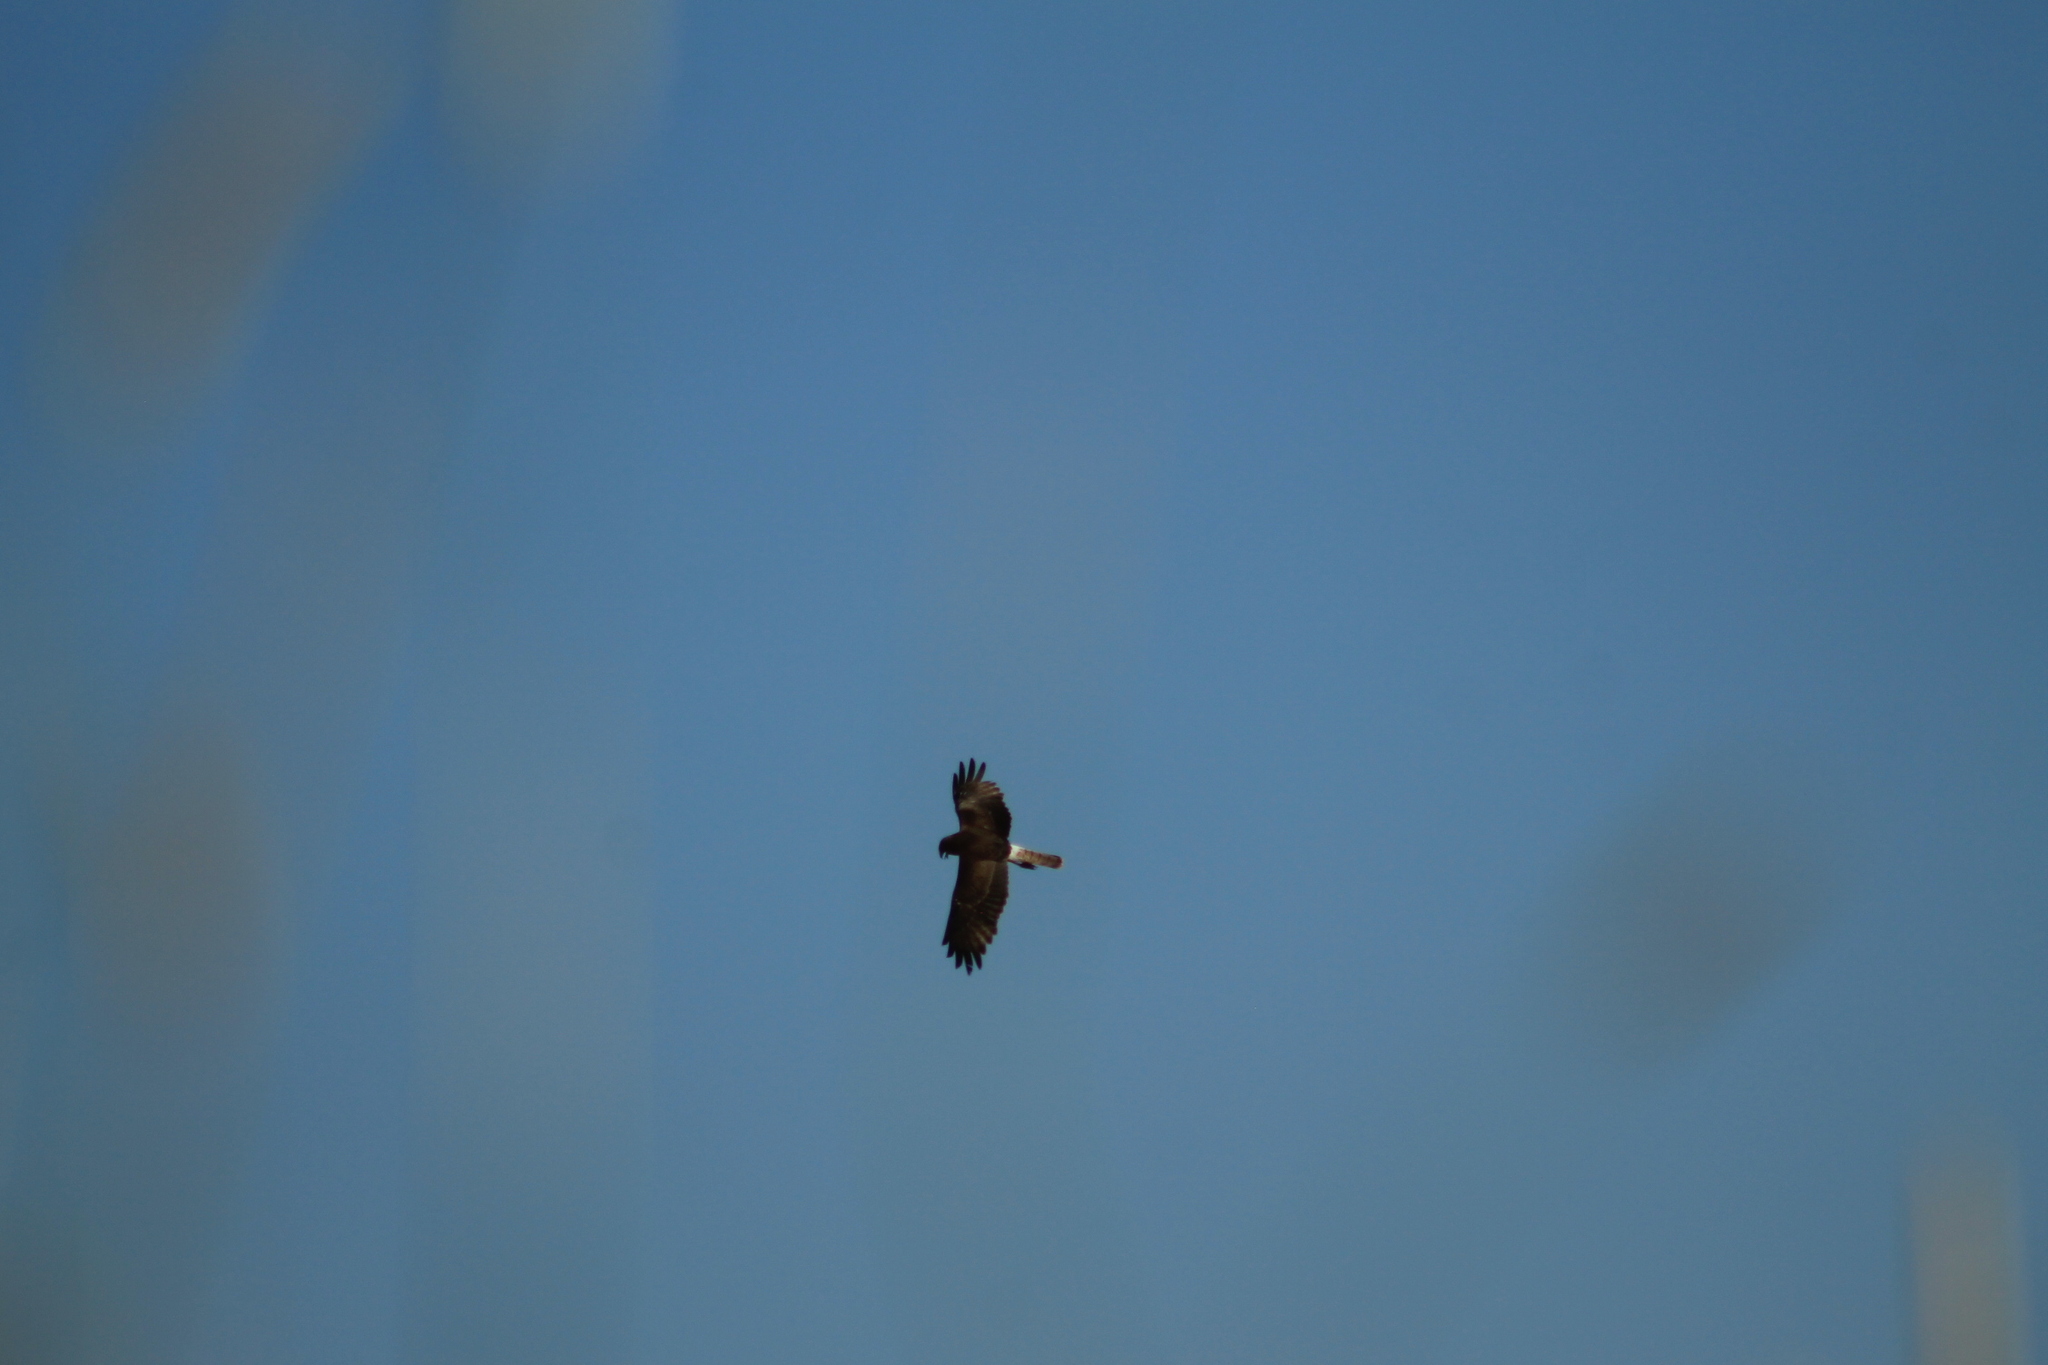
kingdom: Animalia
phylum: Chordata
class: Aves
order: Accipitriformes
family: Accipitridae
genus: Circus
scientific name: Circus approximans
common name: Swamp harrier
